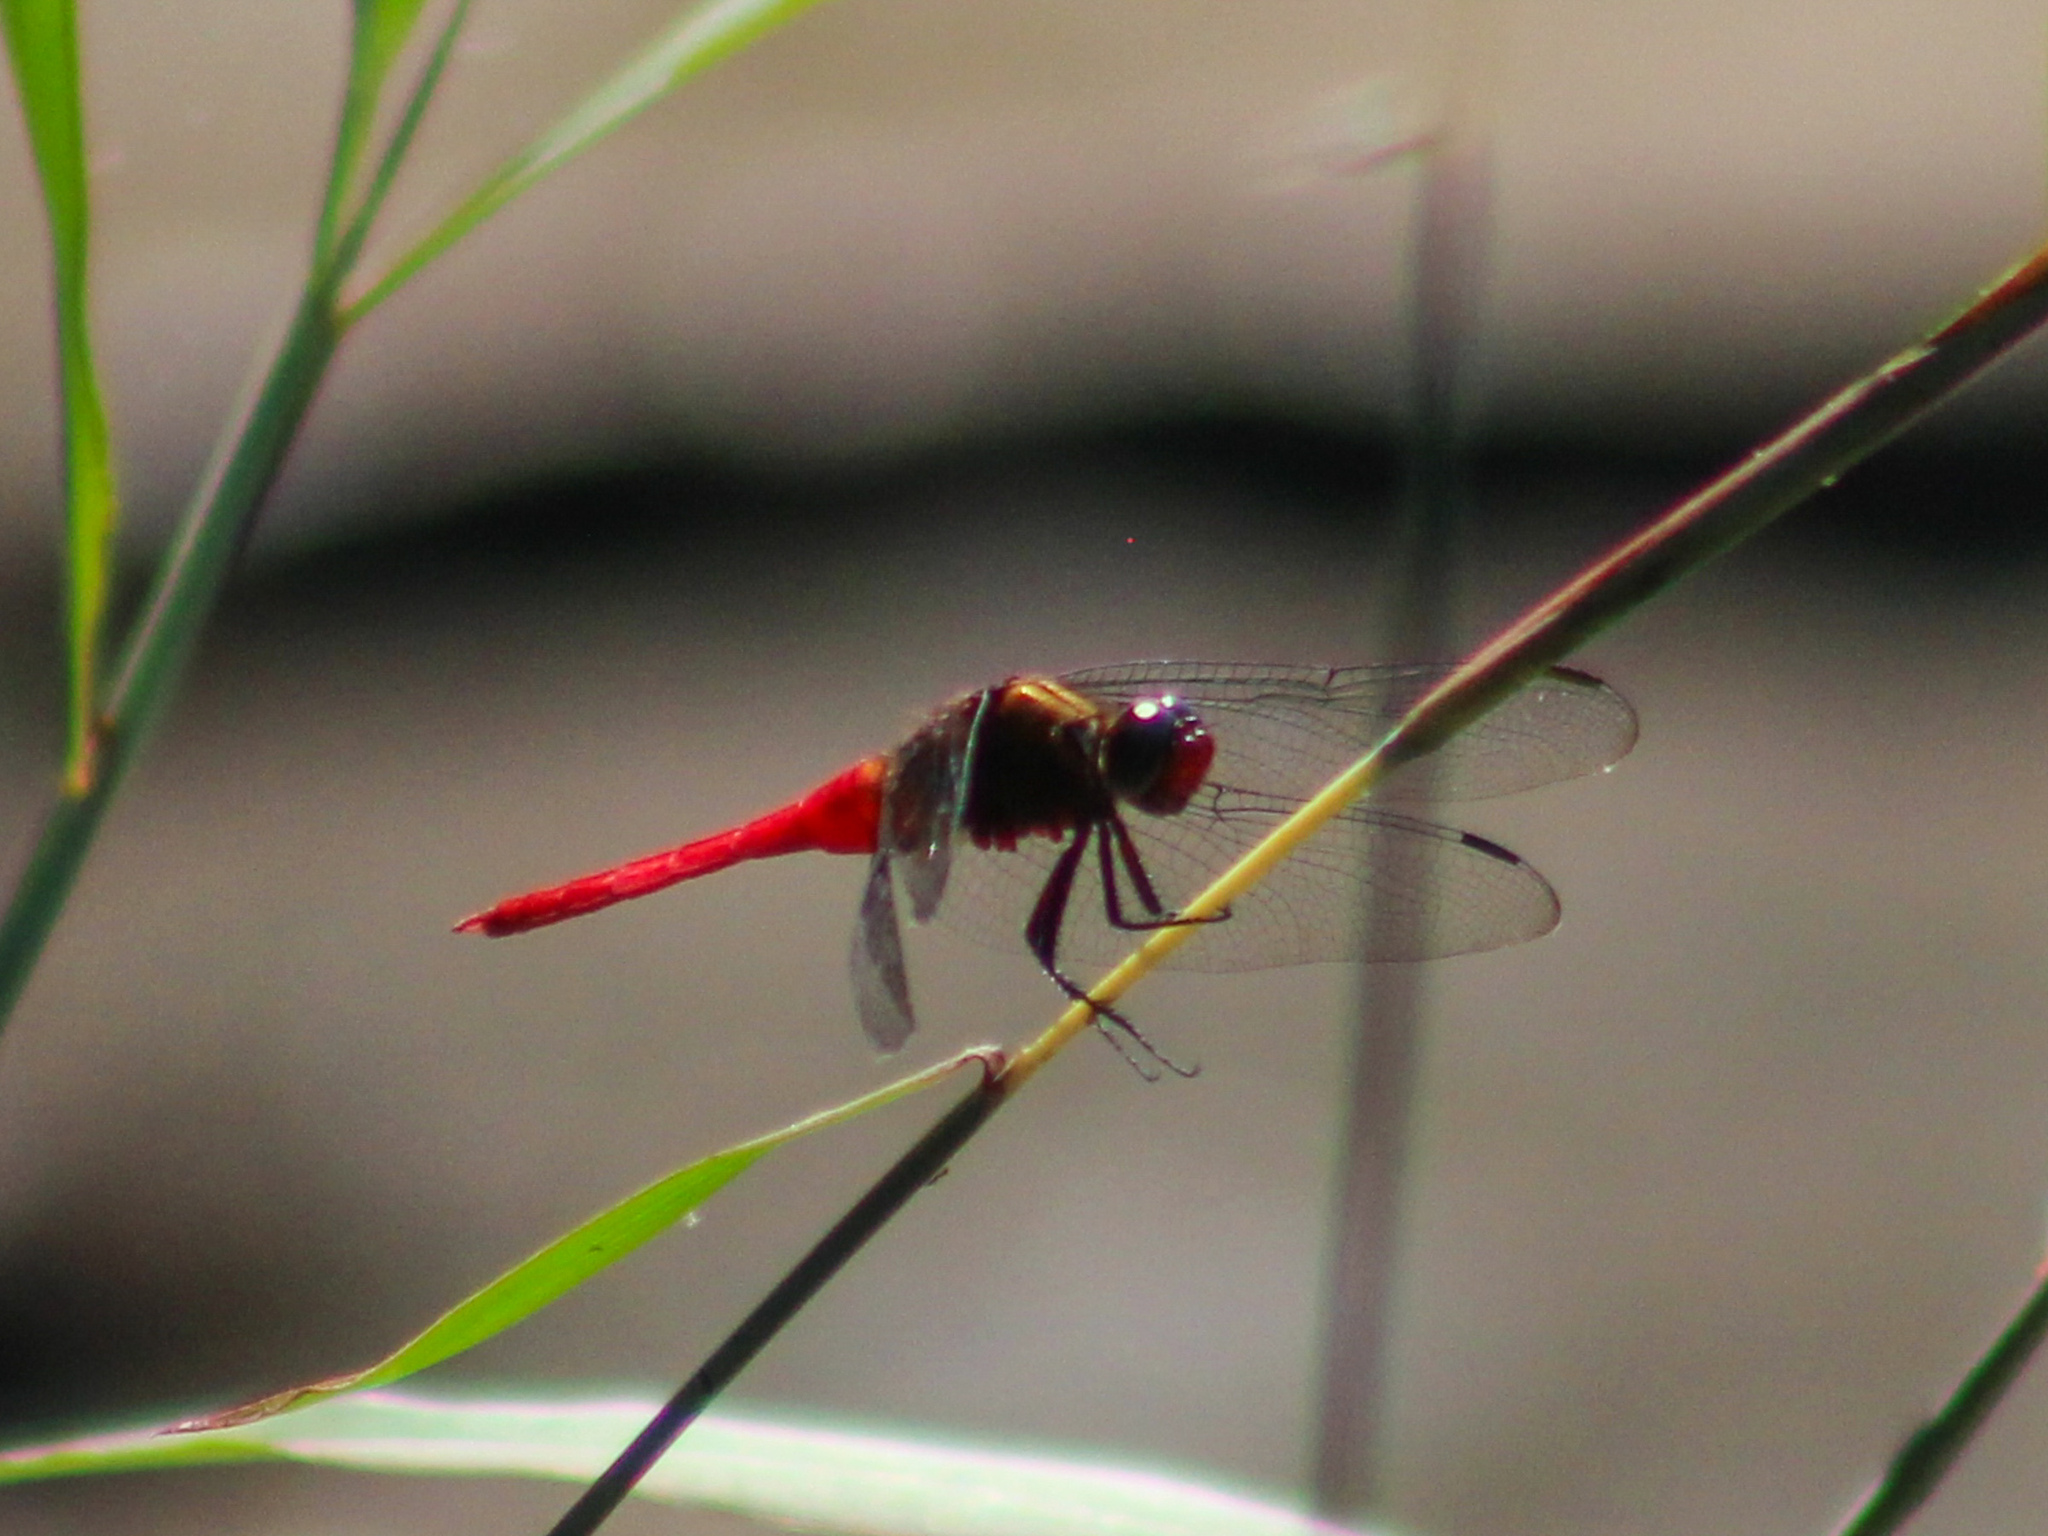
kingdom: Animalia
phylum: Arthropoda
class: Insecta
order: Odonata
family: Libellulidae
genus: Orthetrum
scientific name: Orthetrum chrysis
